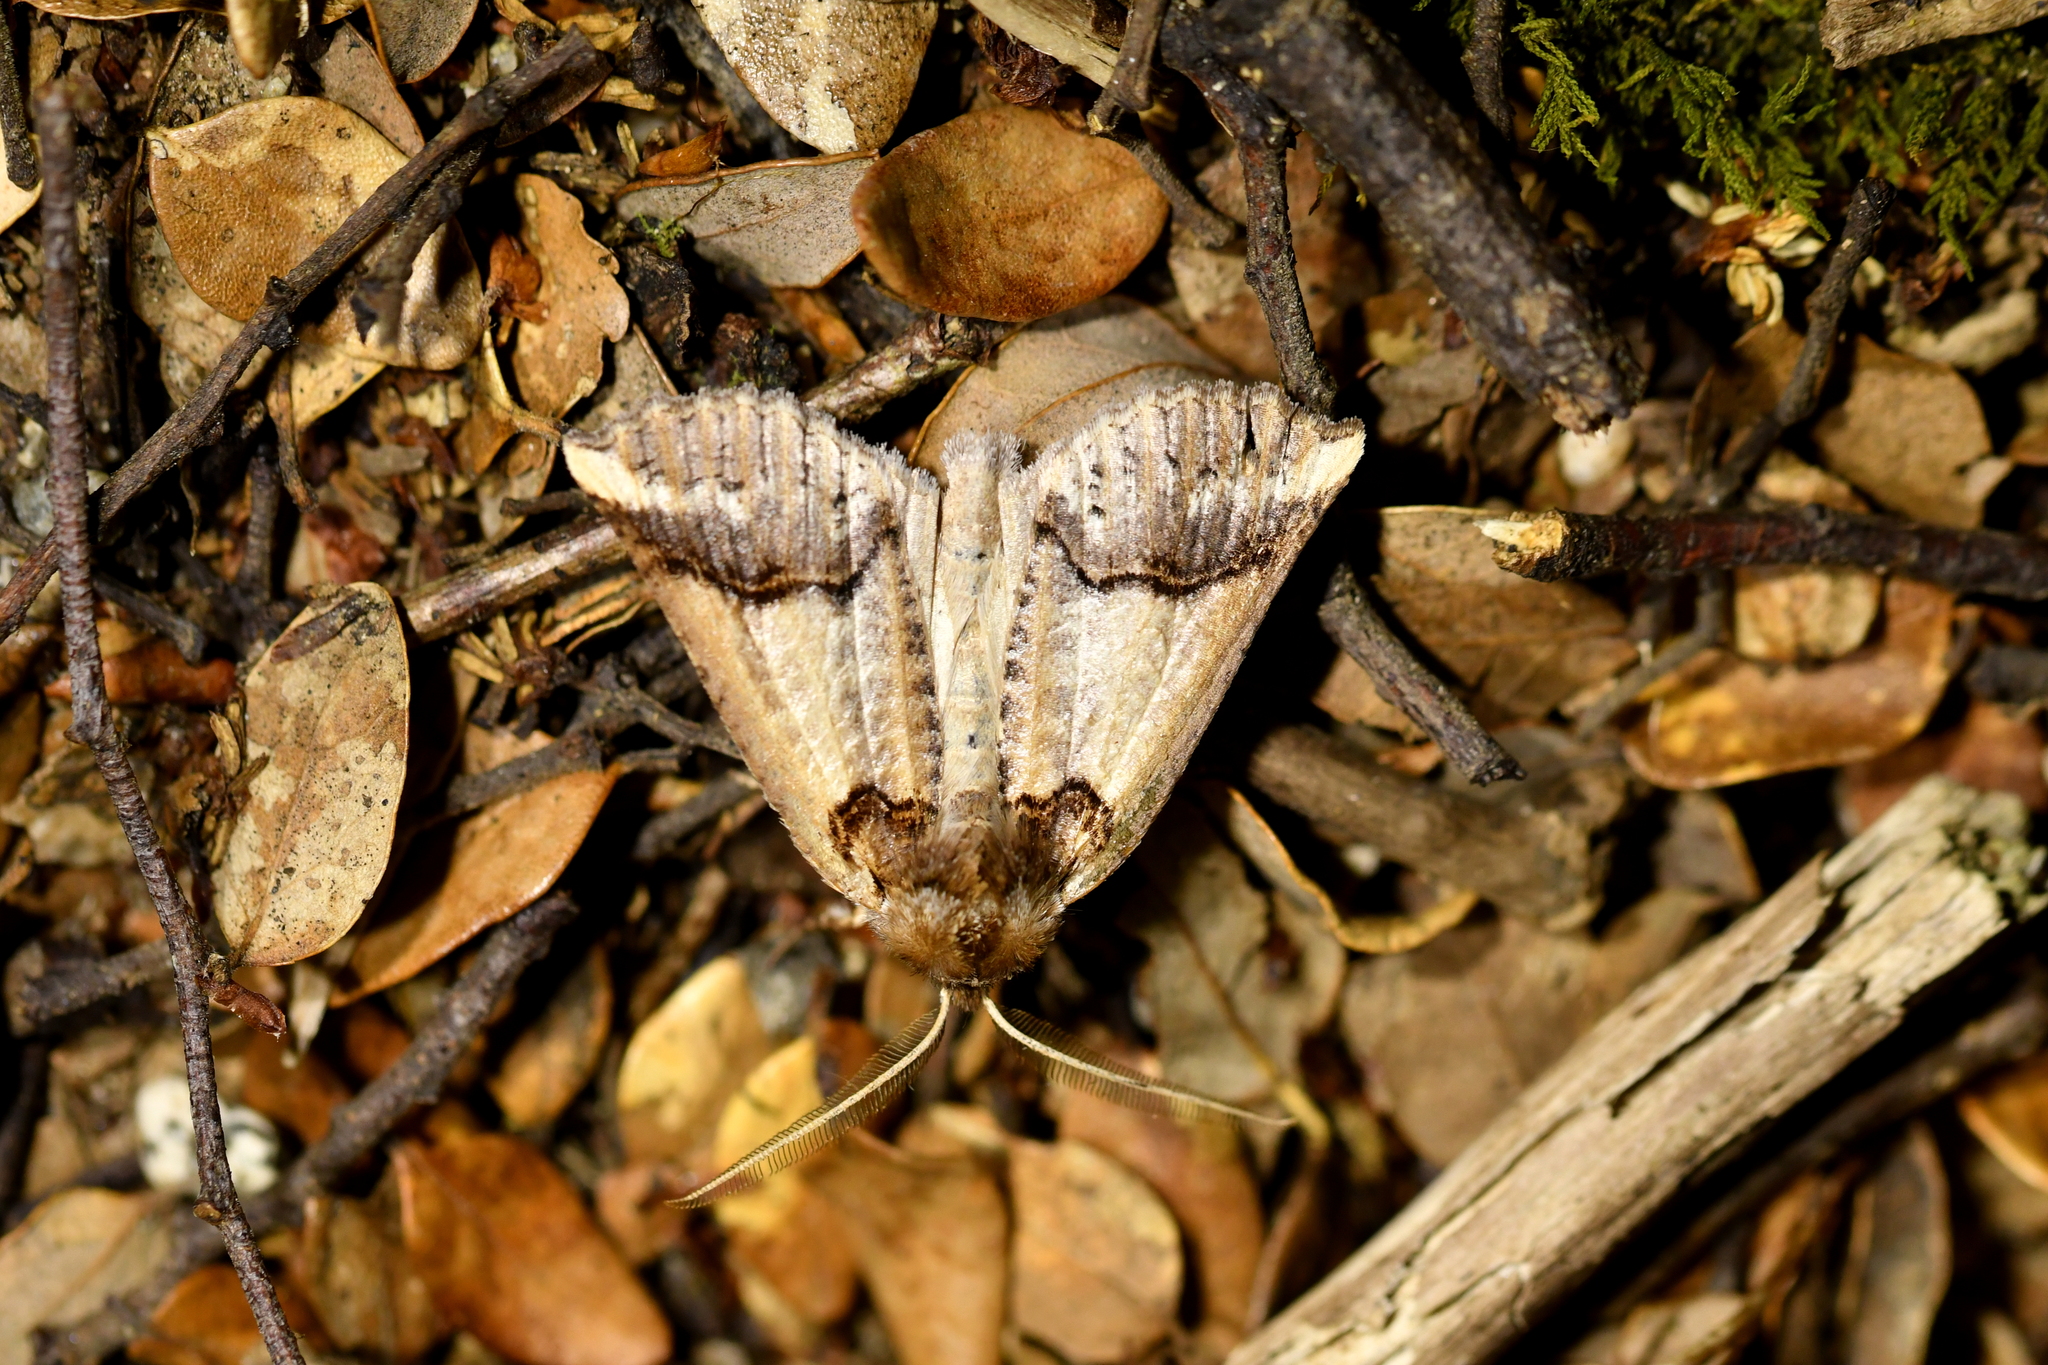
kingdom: Animalia
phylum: Arthropoda
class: Insecta
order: Lepidoptera
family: Geometridae
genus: Declana
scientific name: Declana
